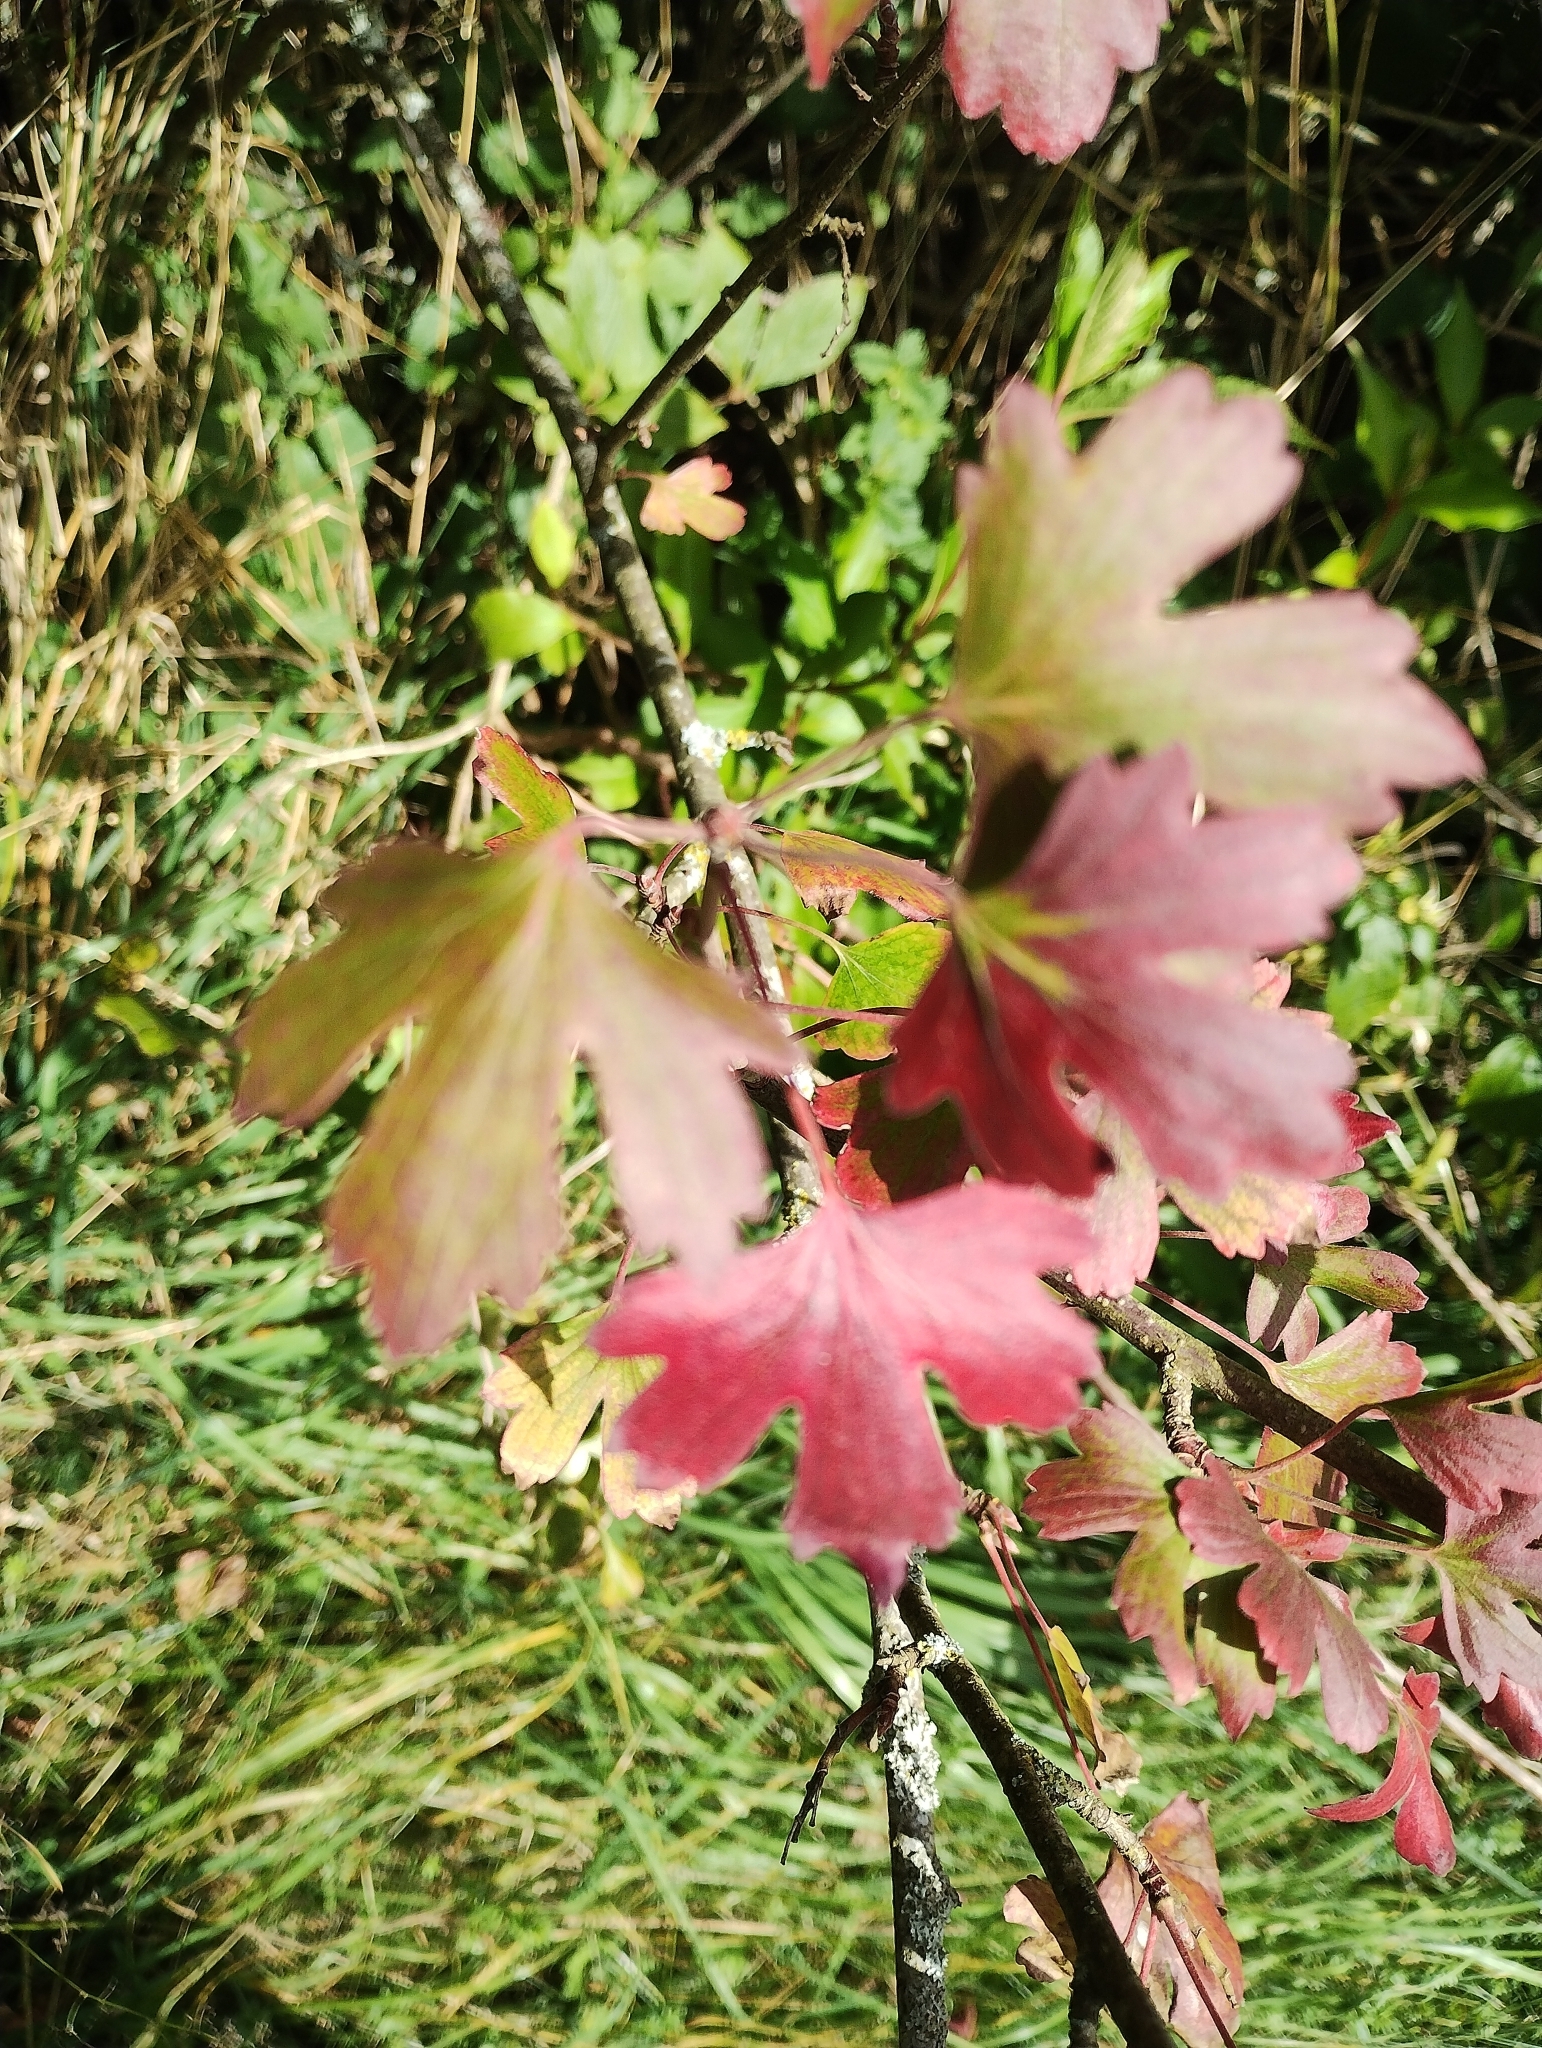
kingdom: Plantae
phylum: Tracheophyta
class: Magnoliopsida
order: Saxifragales
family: Grossulariaceae
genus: Ribes
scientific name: Ribes aureum
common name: Golden currant
